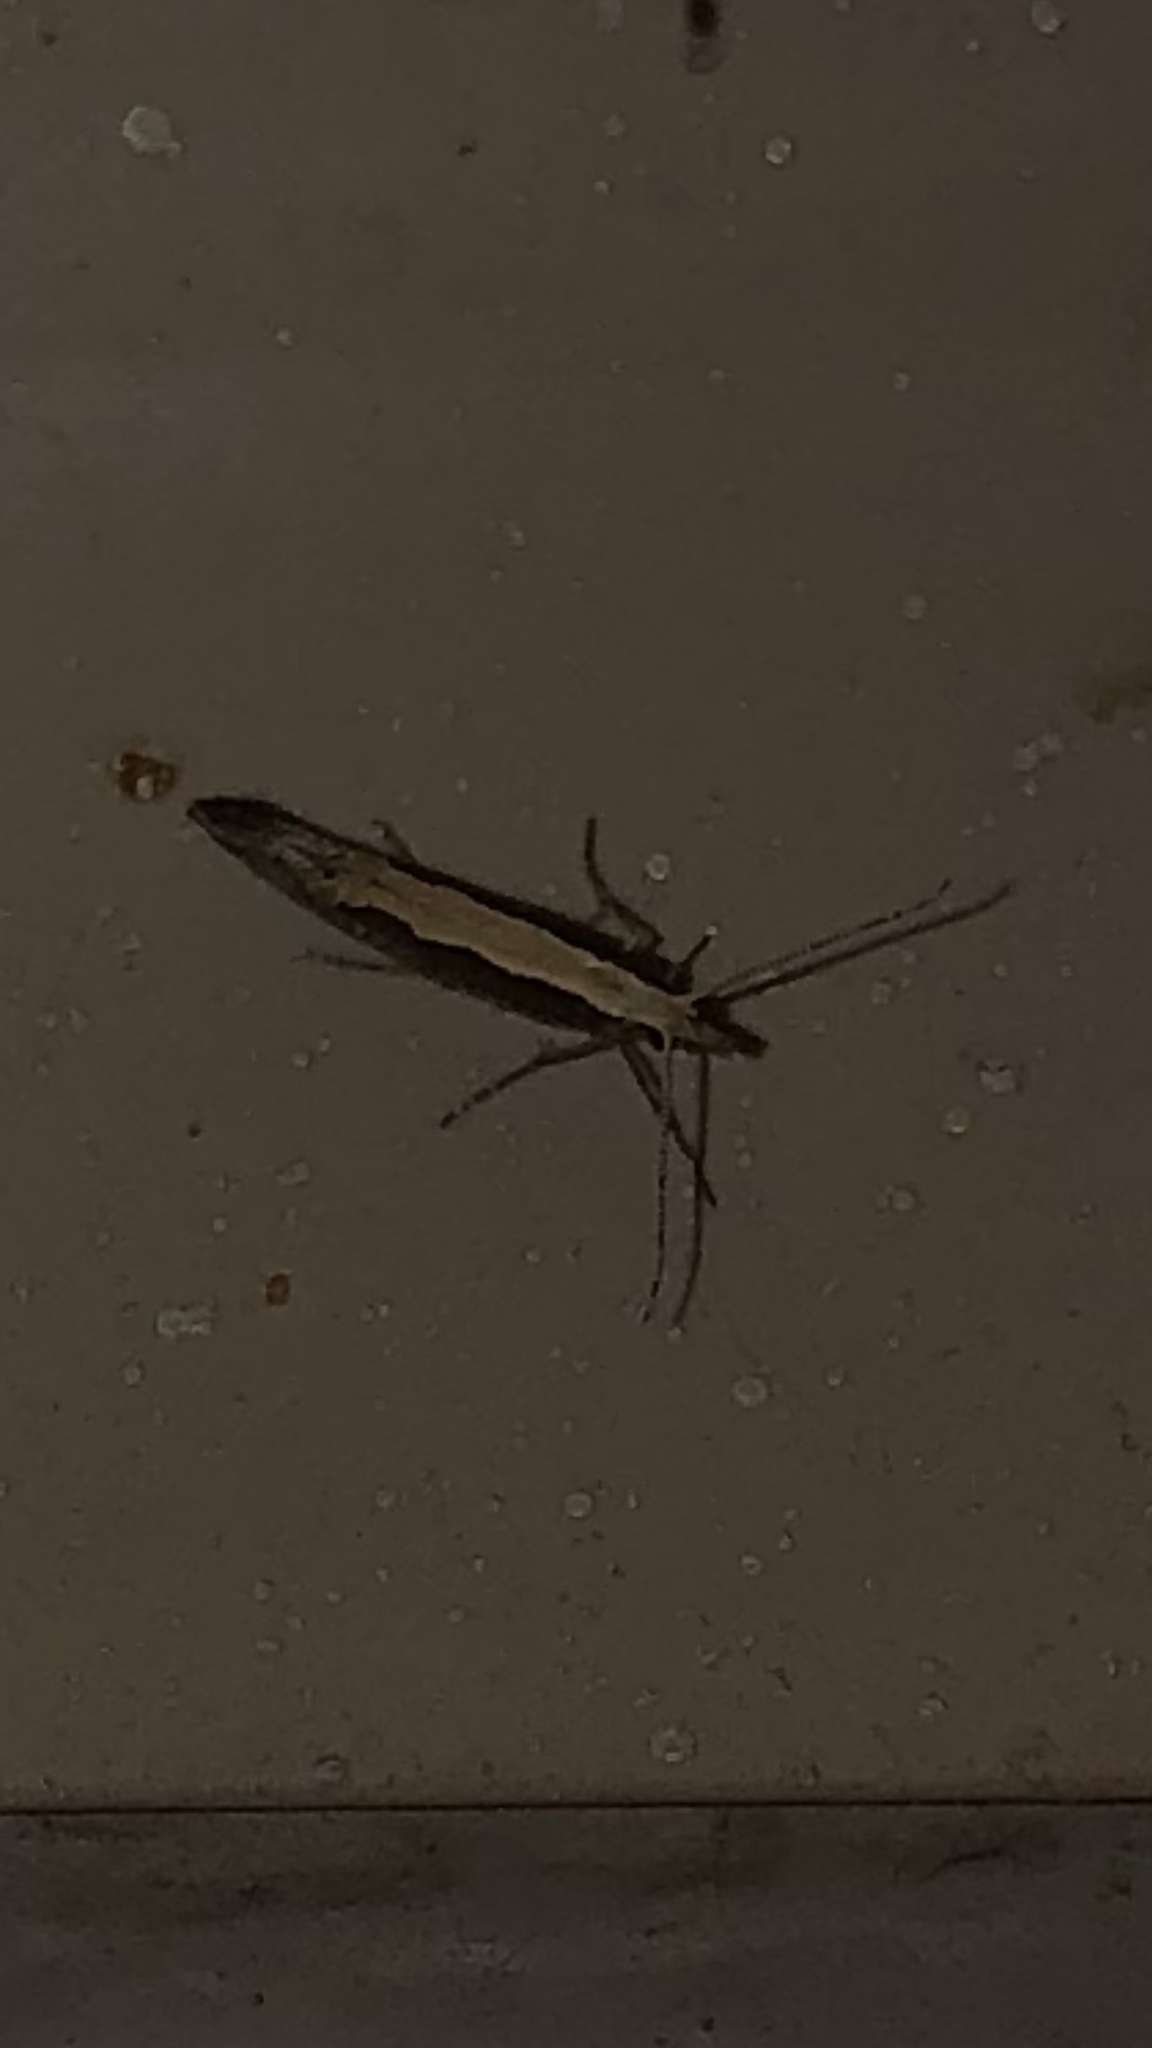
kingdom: Animalia
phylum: Arthropoda
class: Insecta
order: Lepidoptera
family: Plutellidae
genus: Plutella
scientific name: Plutella xylostella
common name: Diamond-back moth
